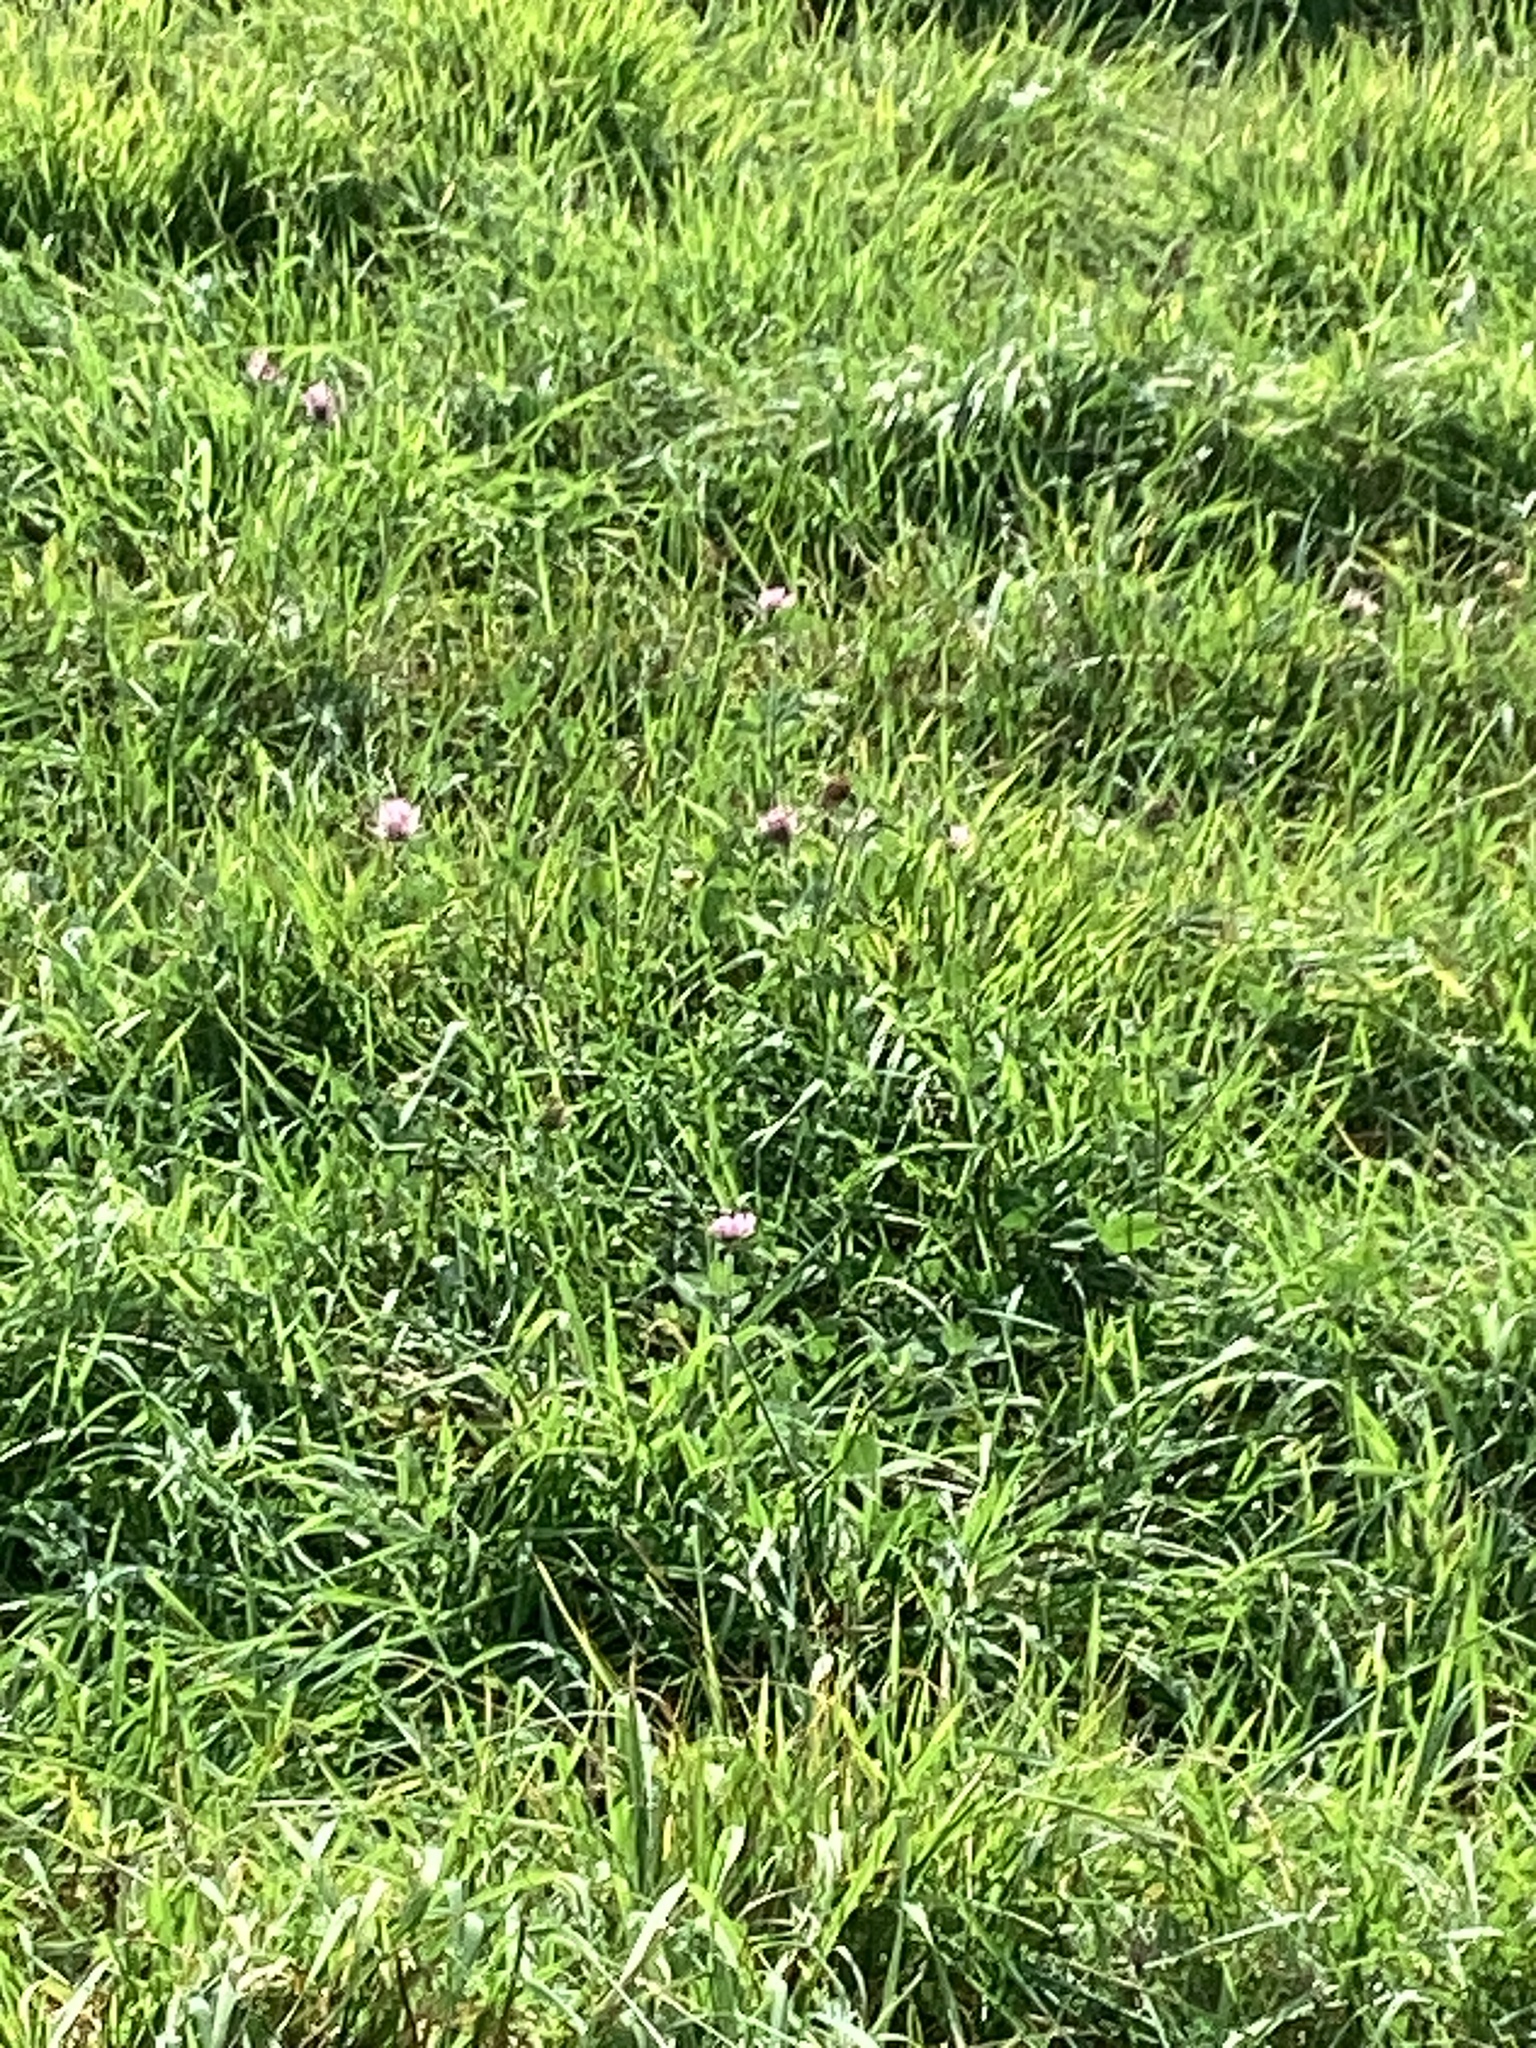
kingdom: Plantae
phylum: Tracheophyta
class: Magnoliopsida
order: Fabales
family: Fabaceae
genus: Trifolium
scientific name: Trifolium pratense
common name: Red clover
